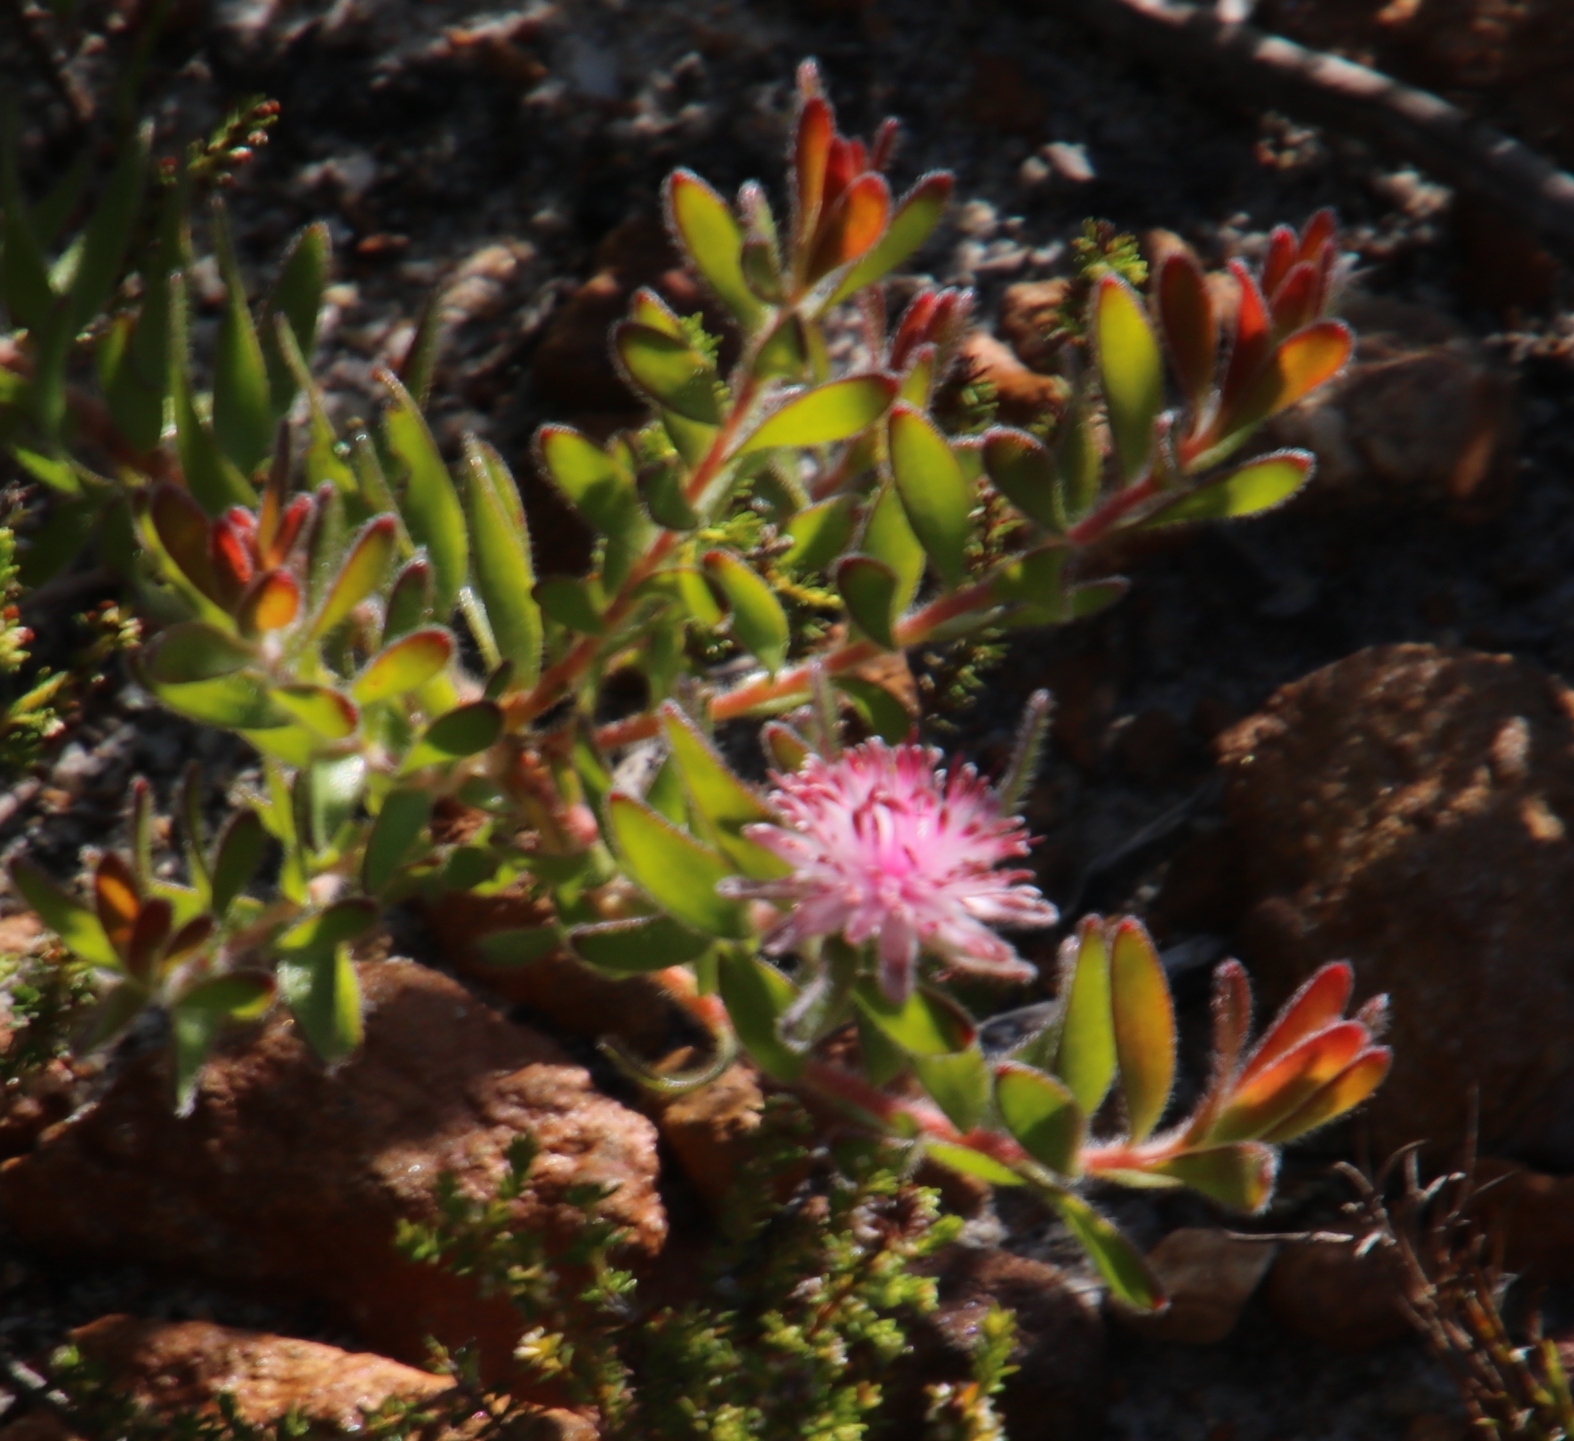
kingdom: Plantae
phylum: Tracheophyta
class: Magnoliopsida
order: Proteales
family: Proteaceae
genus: Diastella
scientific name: Diastella divaricata
